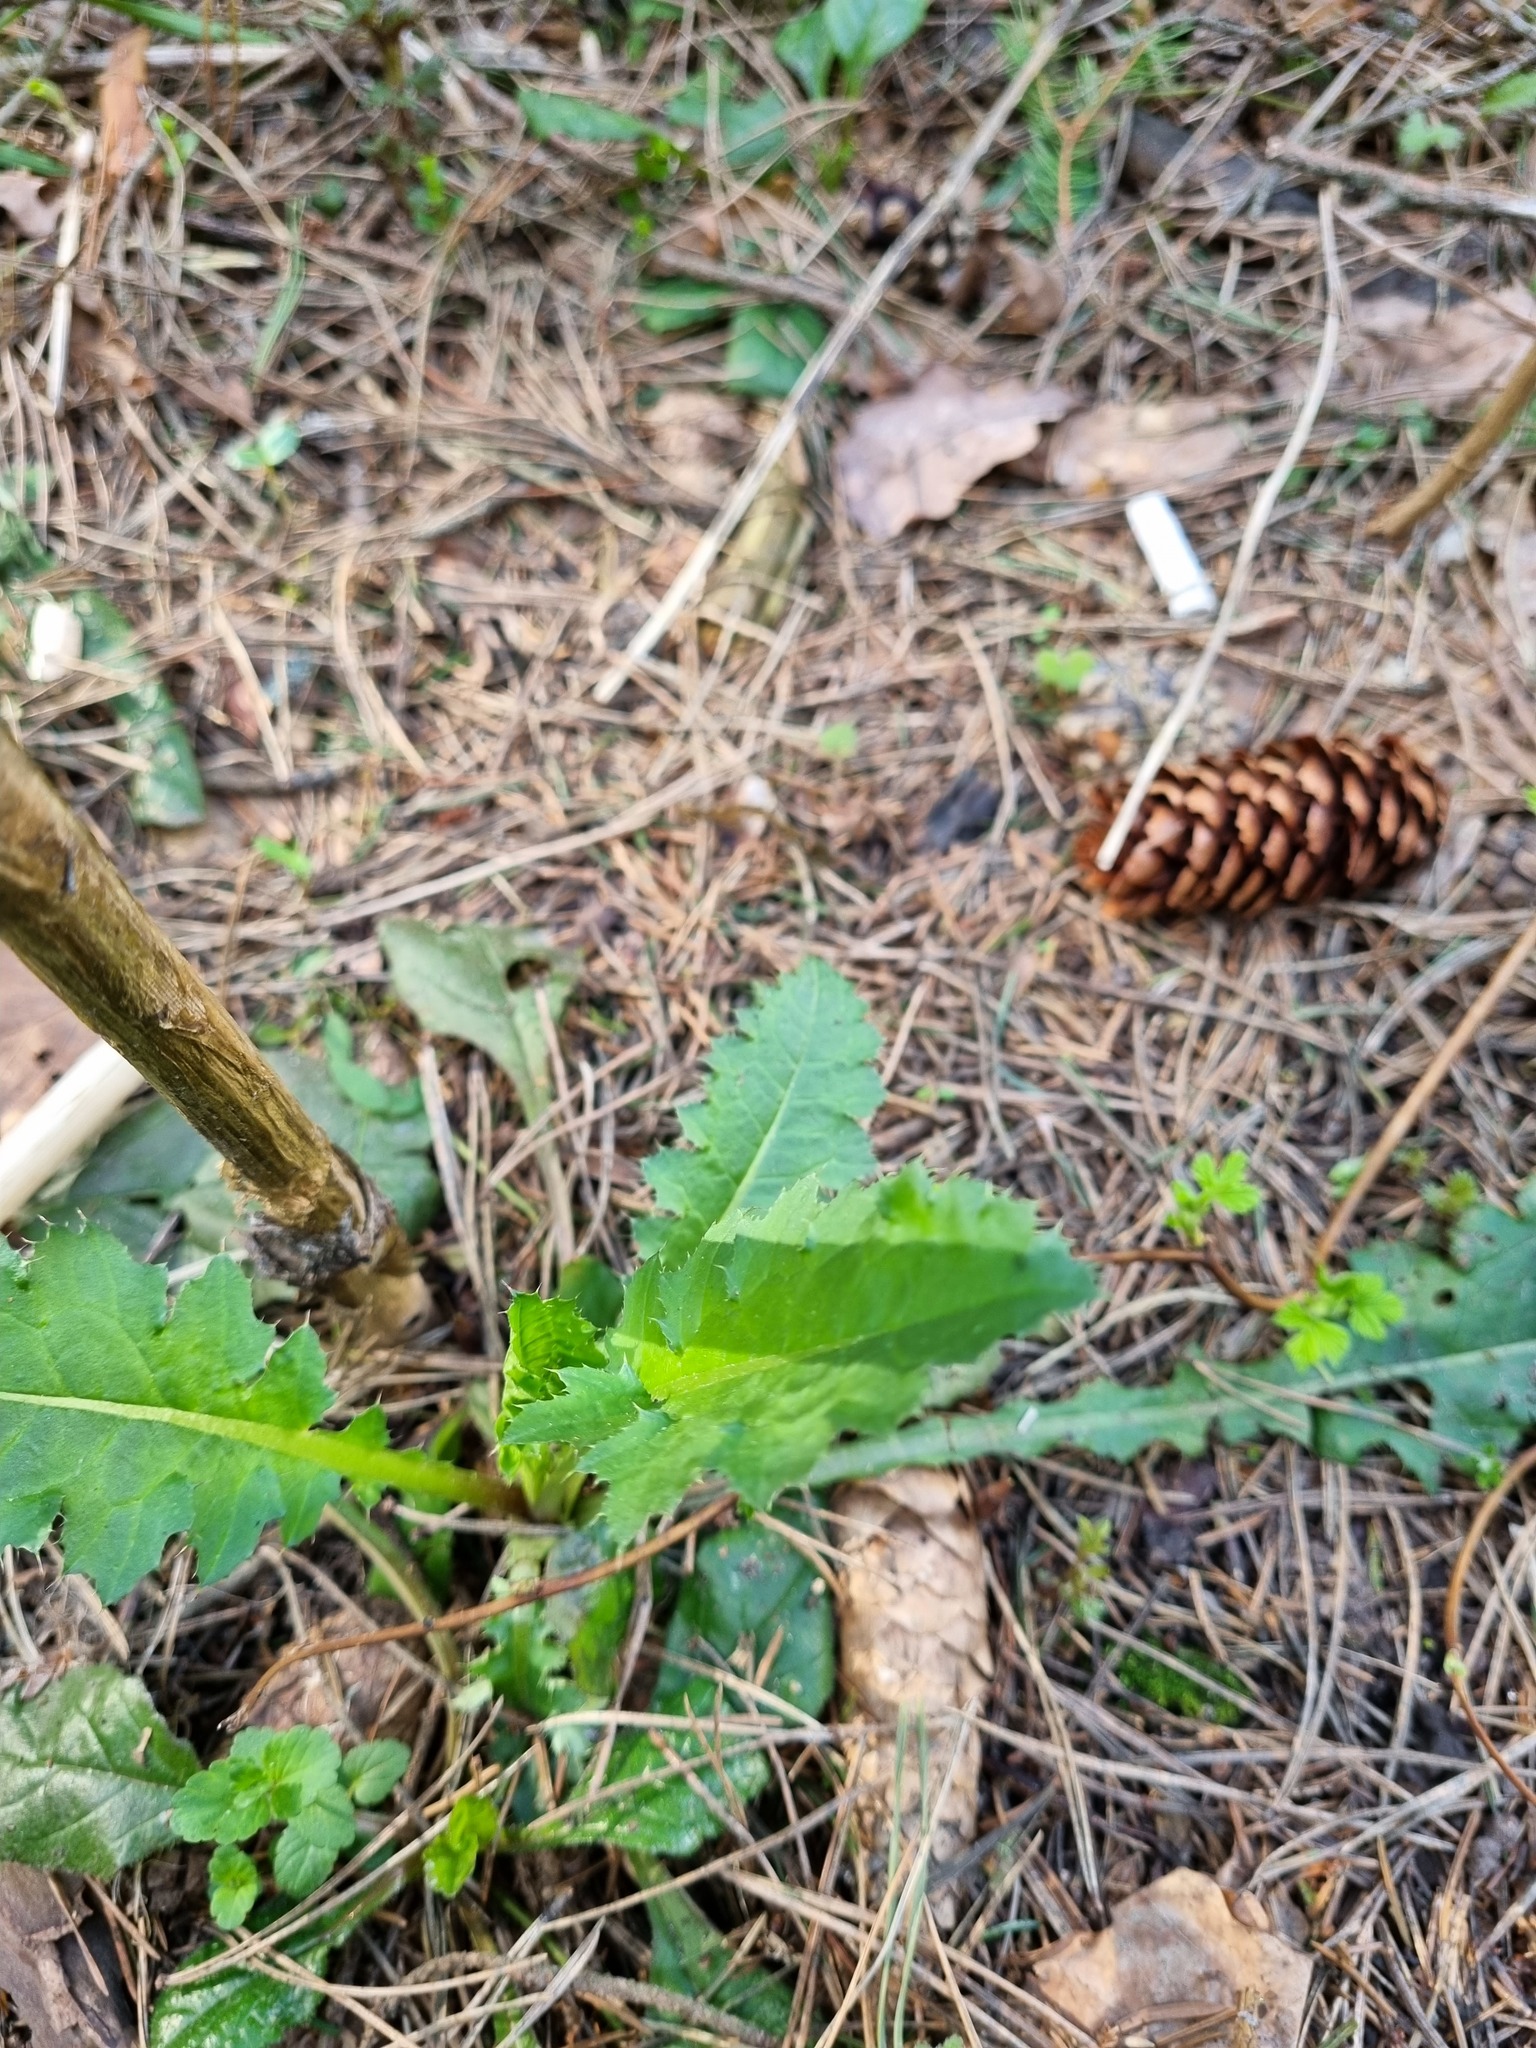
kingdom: Plantae
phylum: Tracheophyta
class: Magnoliopsida
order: Asterales
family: Asteraceae
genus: Cirsium
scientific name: Cirsium oleraceum
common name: Cabbage thistle
